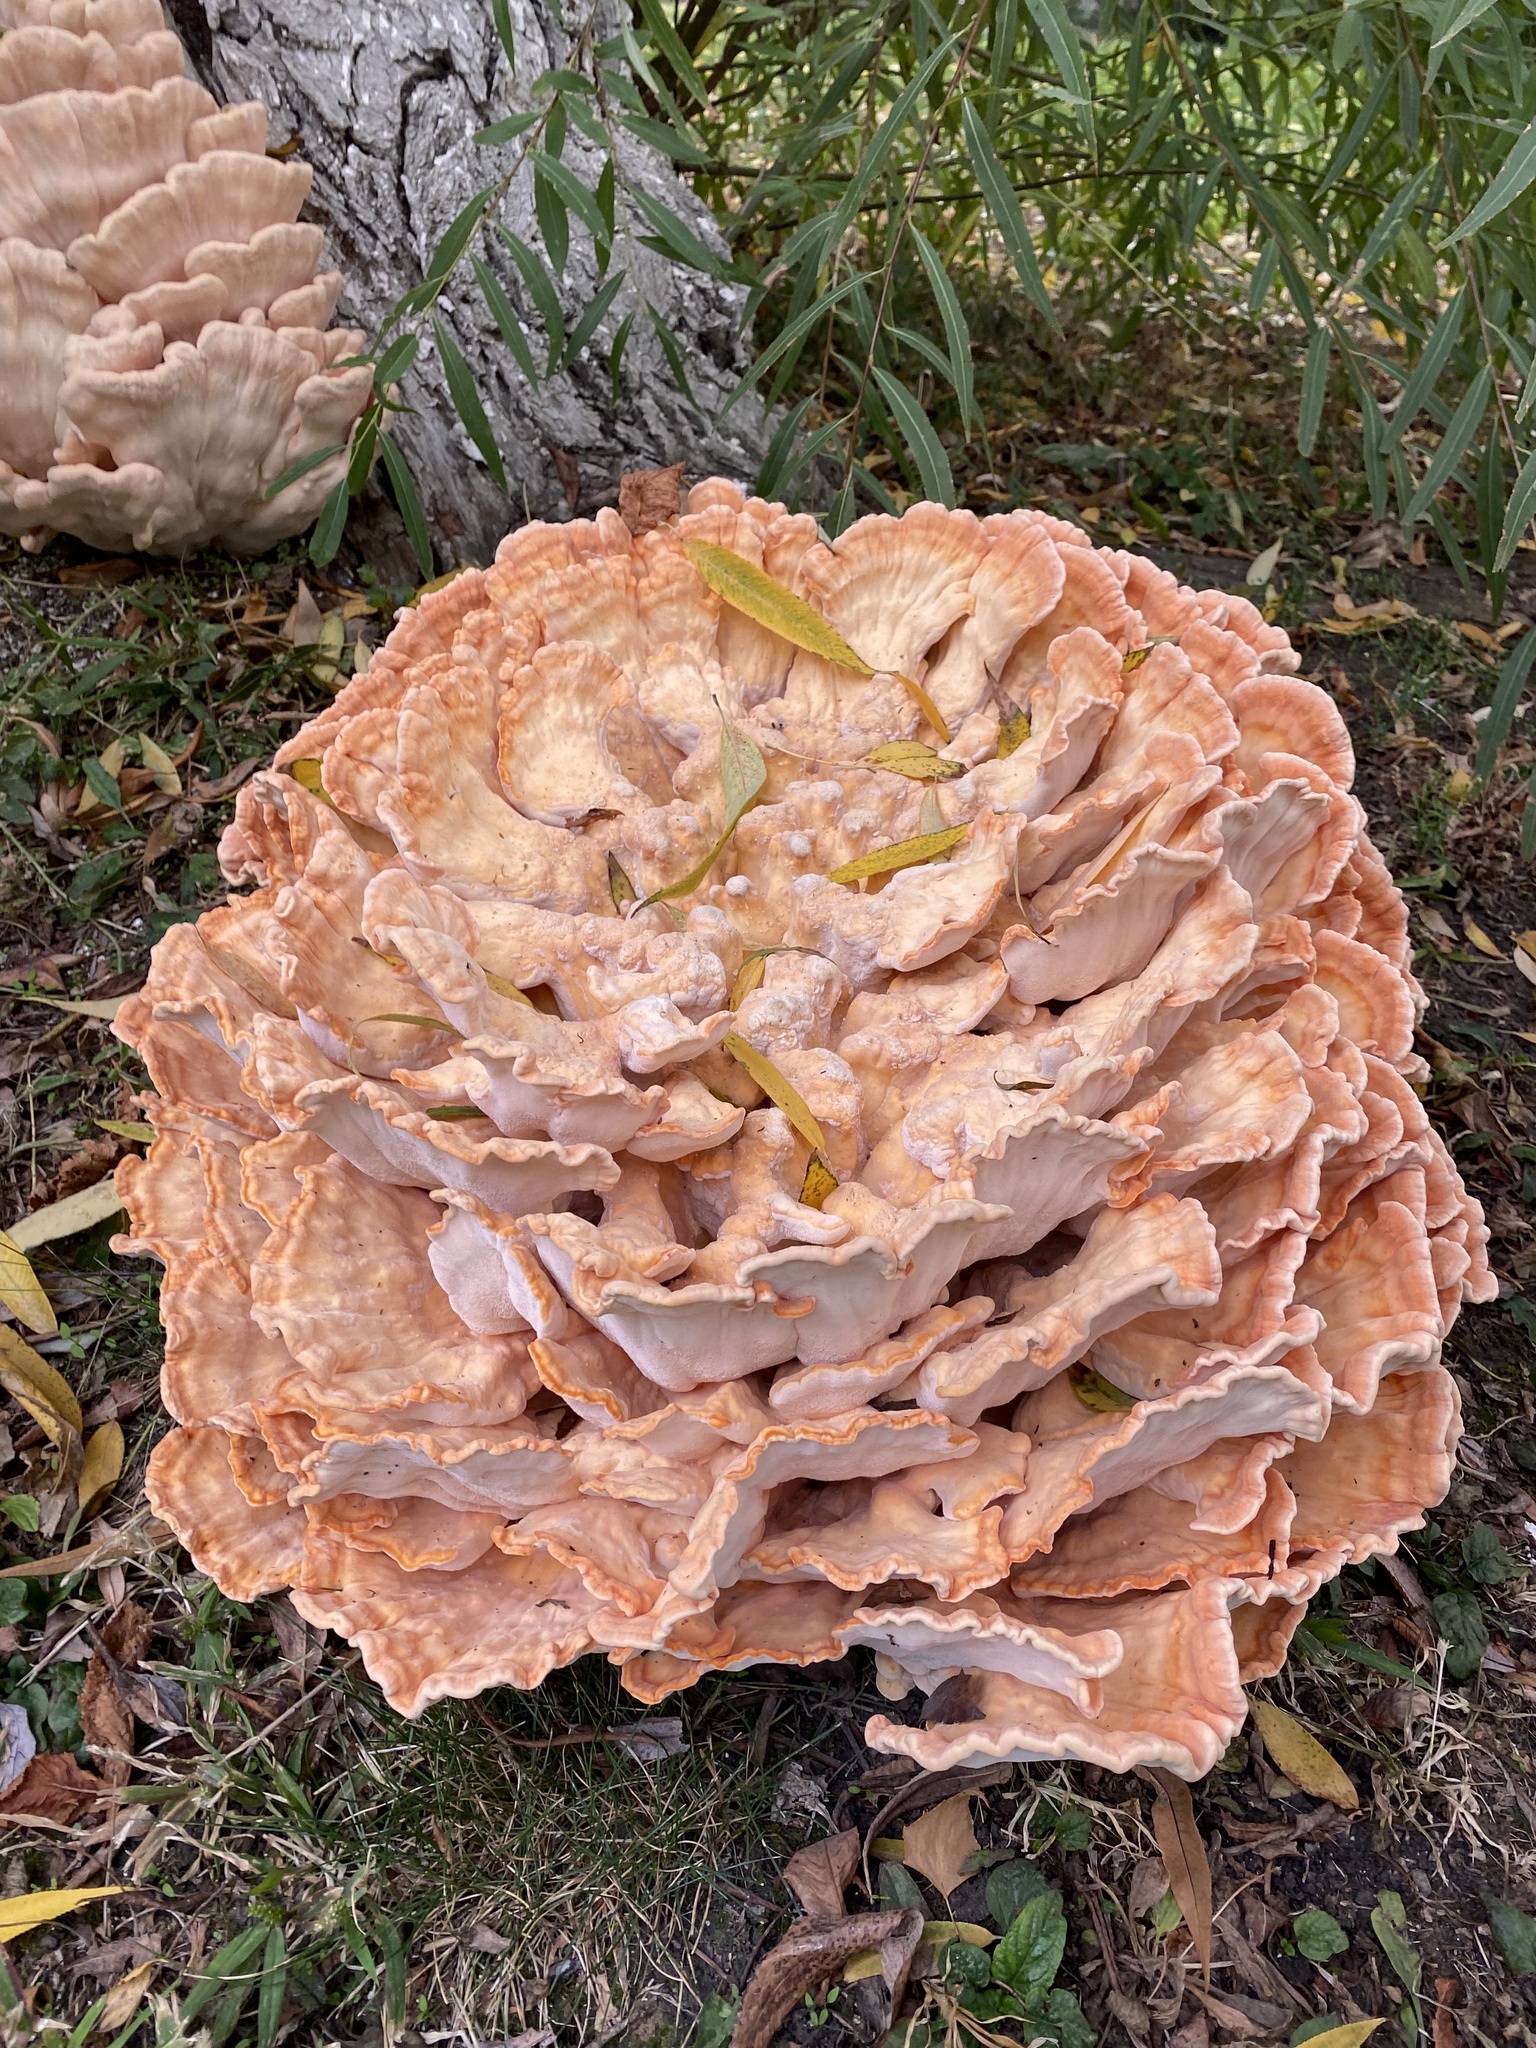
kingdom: Fungi
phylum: Basidiomycota
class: Agaricomycetes
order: Polyporales
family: Laetiporaceae
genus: Laetiporus
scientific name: Laetiporus sulphureus
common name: Chicken of the woods
